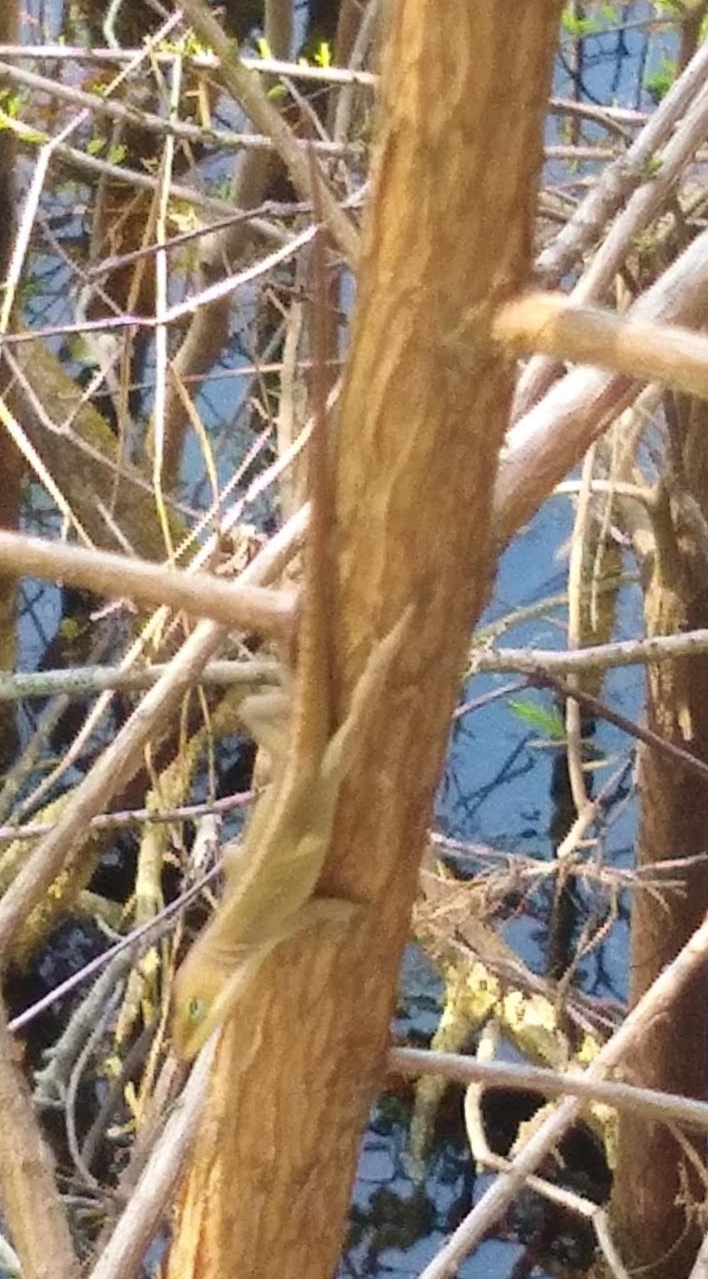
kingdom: Animalia
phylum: Chordata
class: Squamata
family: Dactyloidae
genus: Anolis
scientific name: Anolis carolinensis
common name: Green anole
